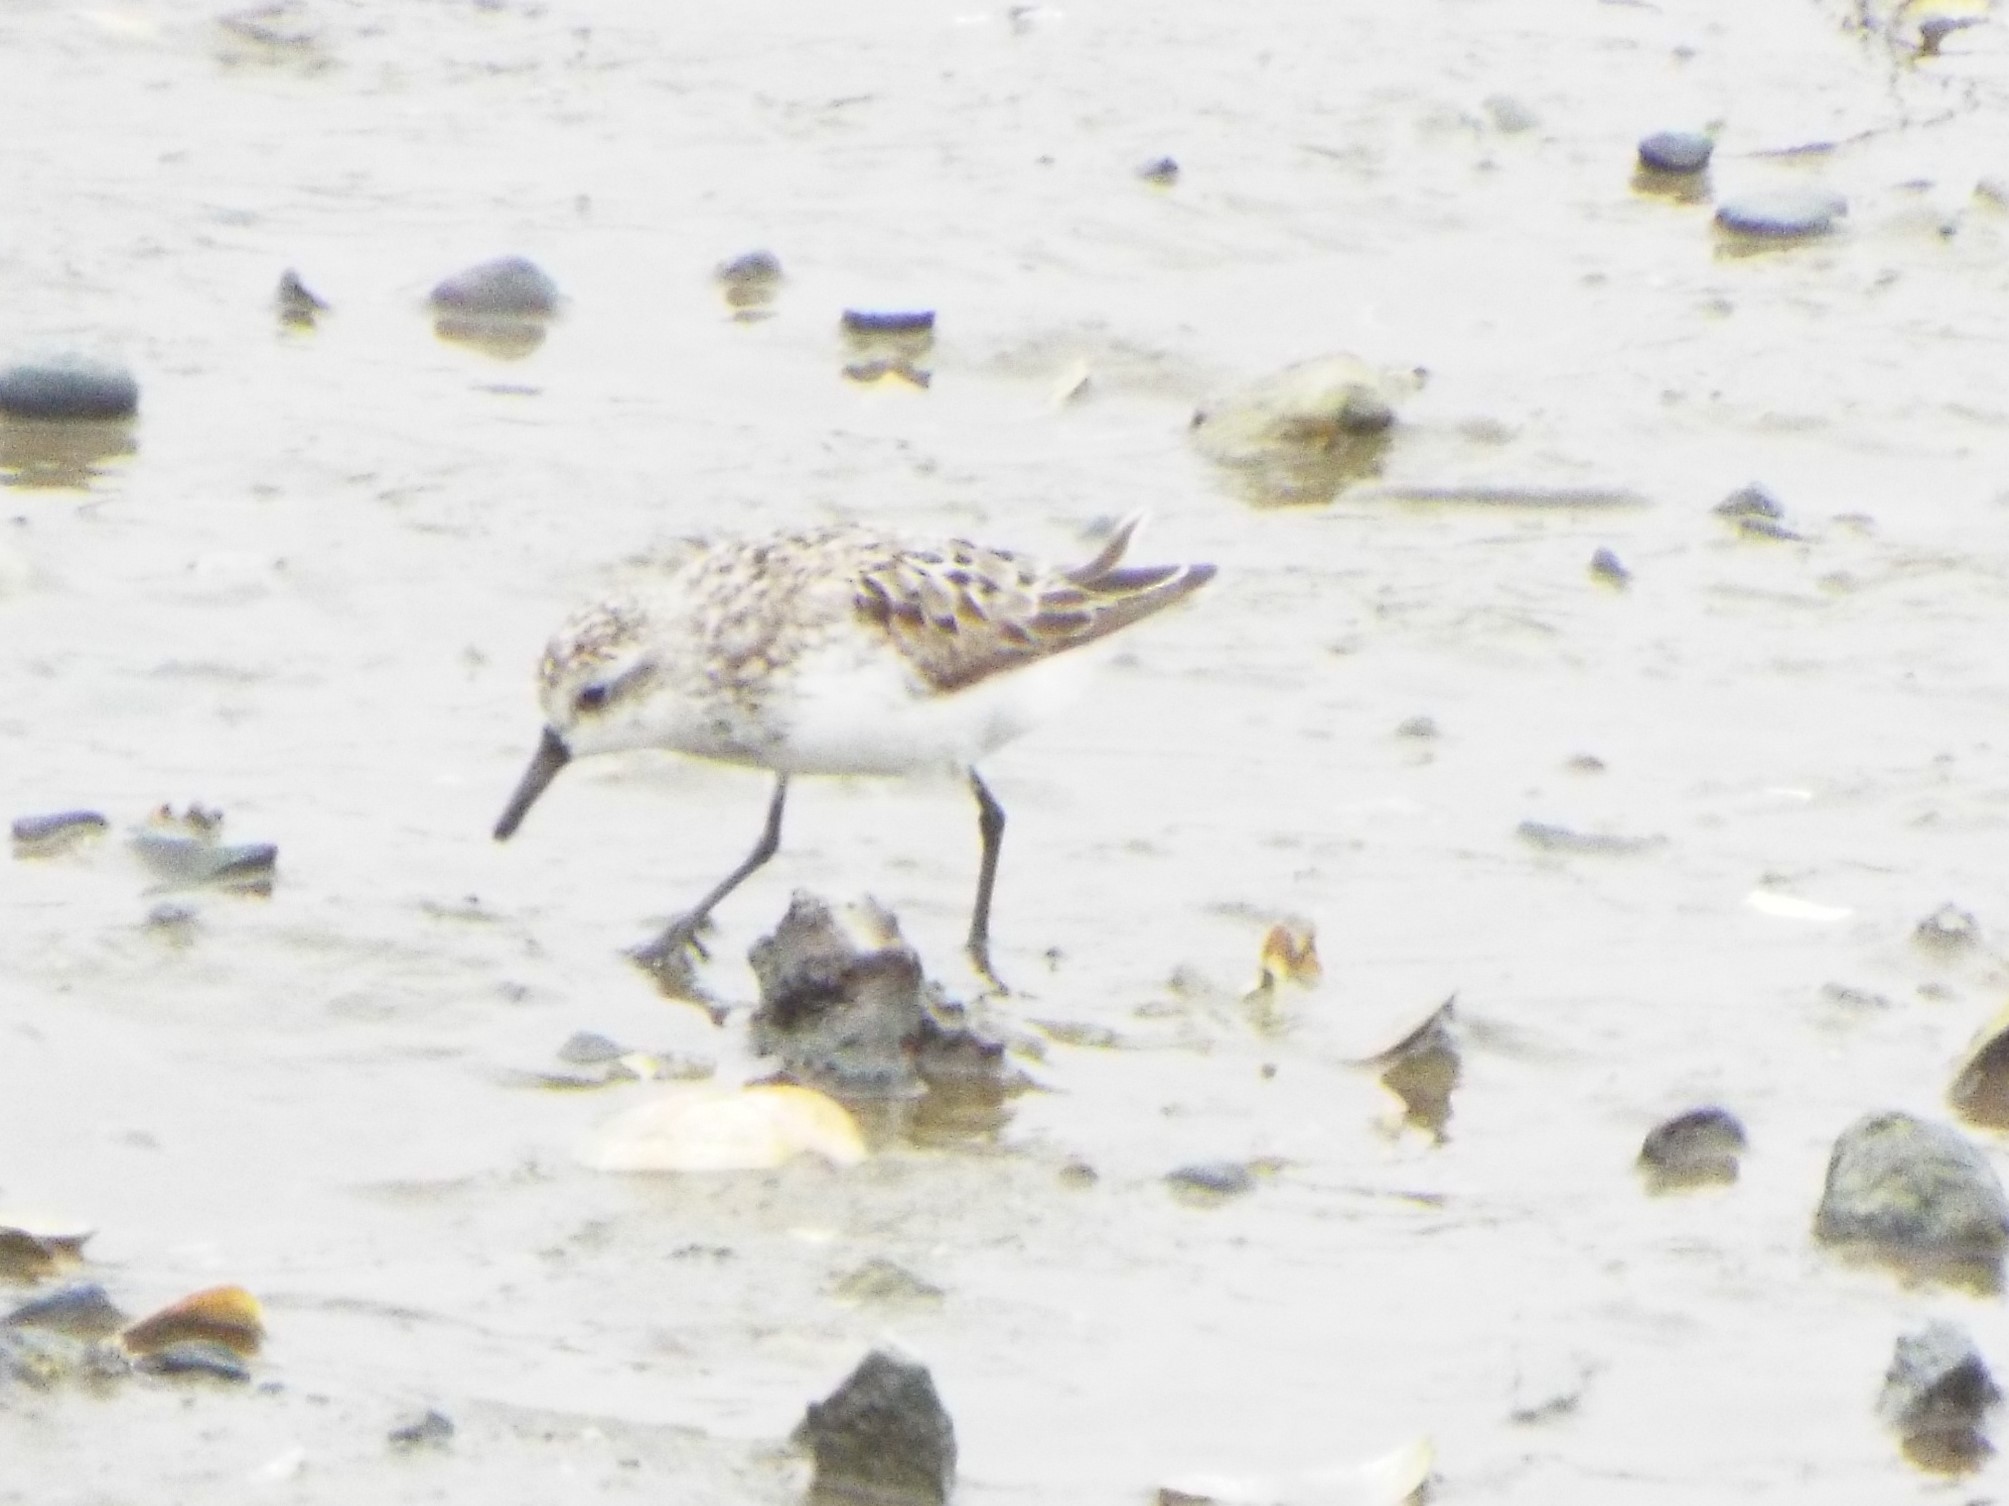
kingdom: Animalia
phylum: Chordata
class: Aves
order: Charadriiformes
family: Scolopacidae
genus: Calidris
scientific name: Calidris pusilla
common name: Semipalmated sandpiper
